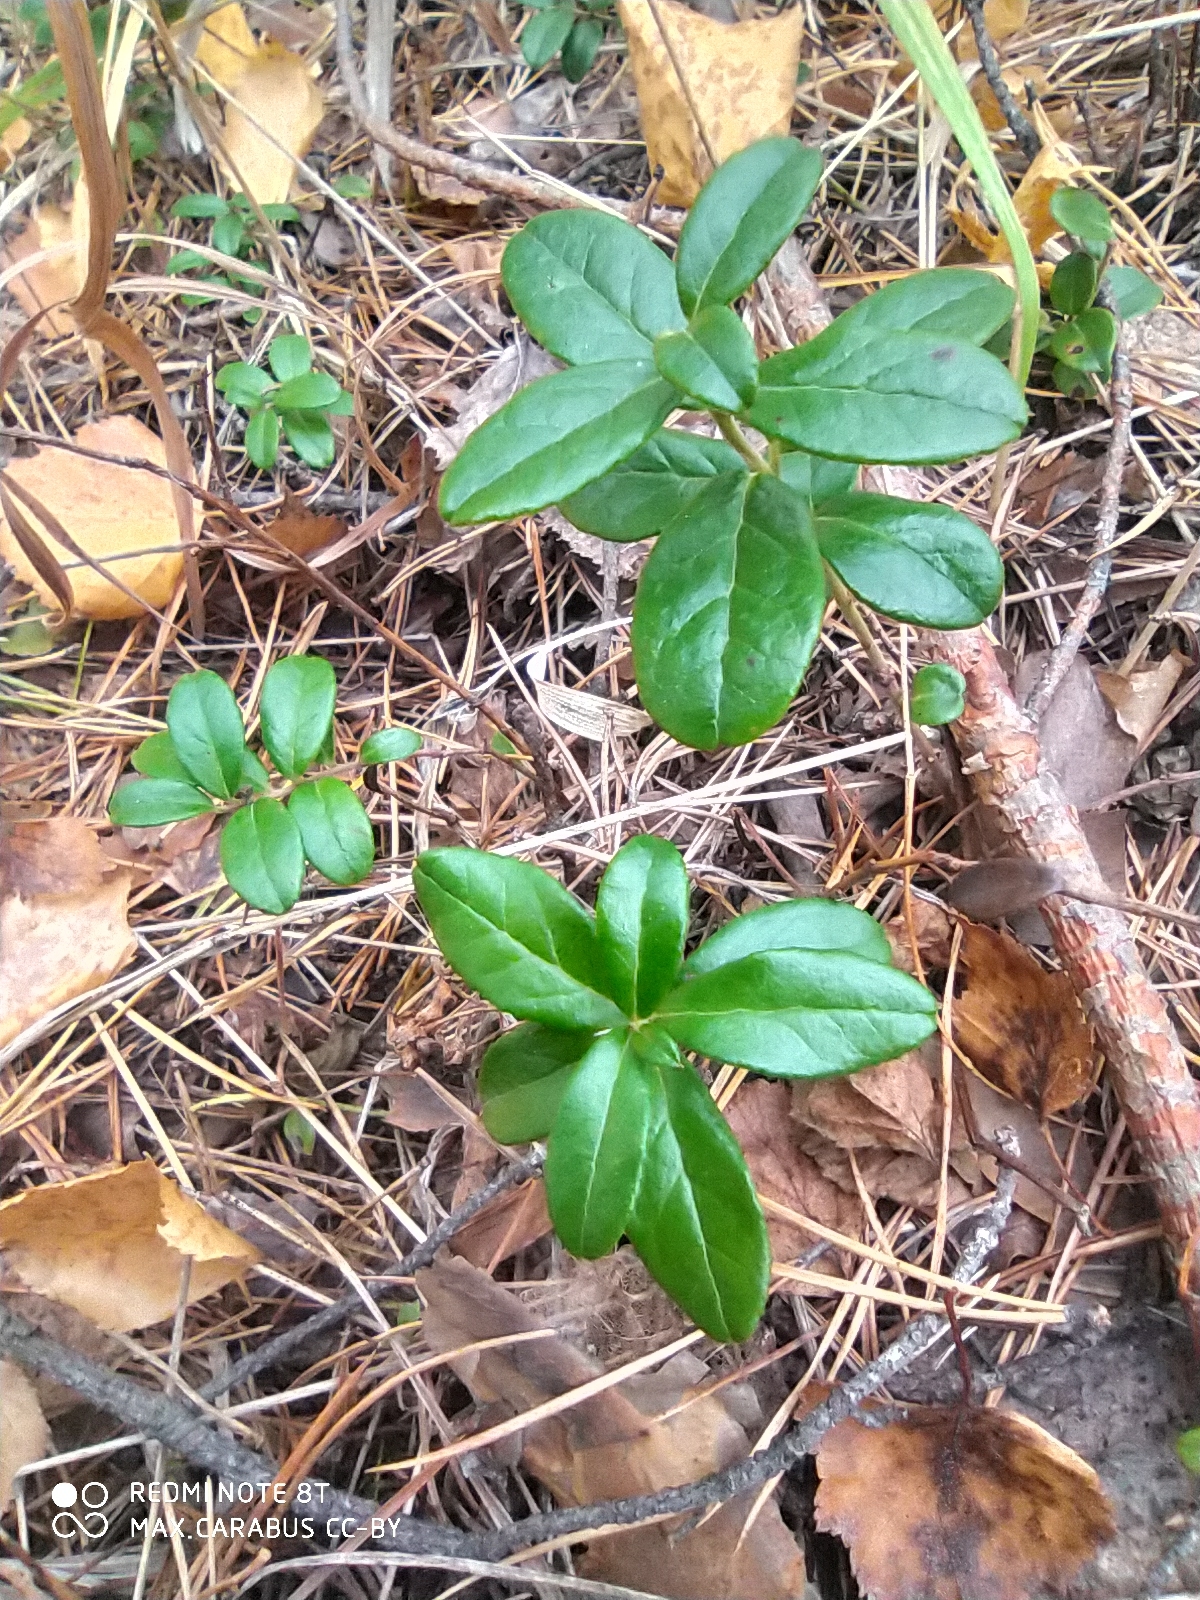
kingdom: Plantae
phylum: Tracheophyta
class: Magnoliopsida
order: Ericales
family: Ericaceae
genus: Vaccinium
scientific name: Vaccinium vitis-idaea
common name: Cowberry
